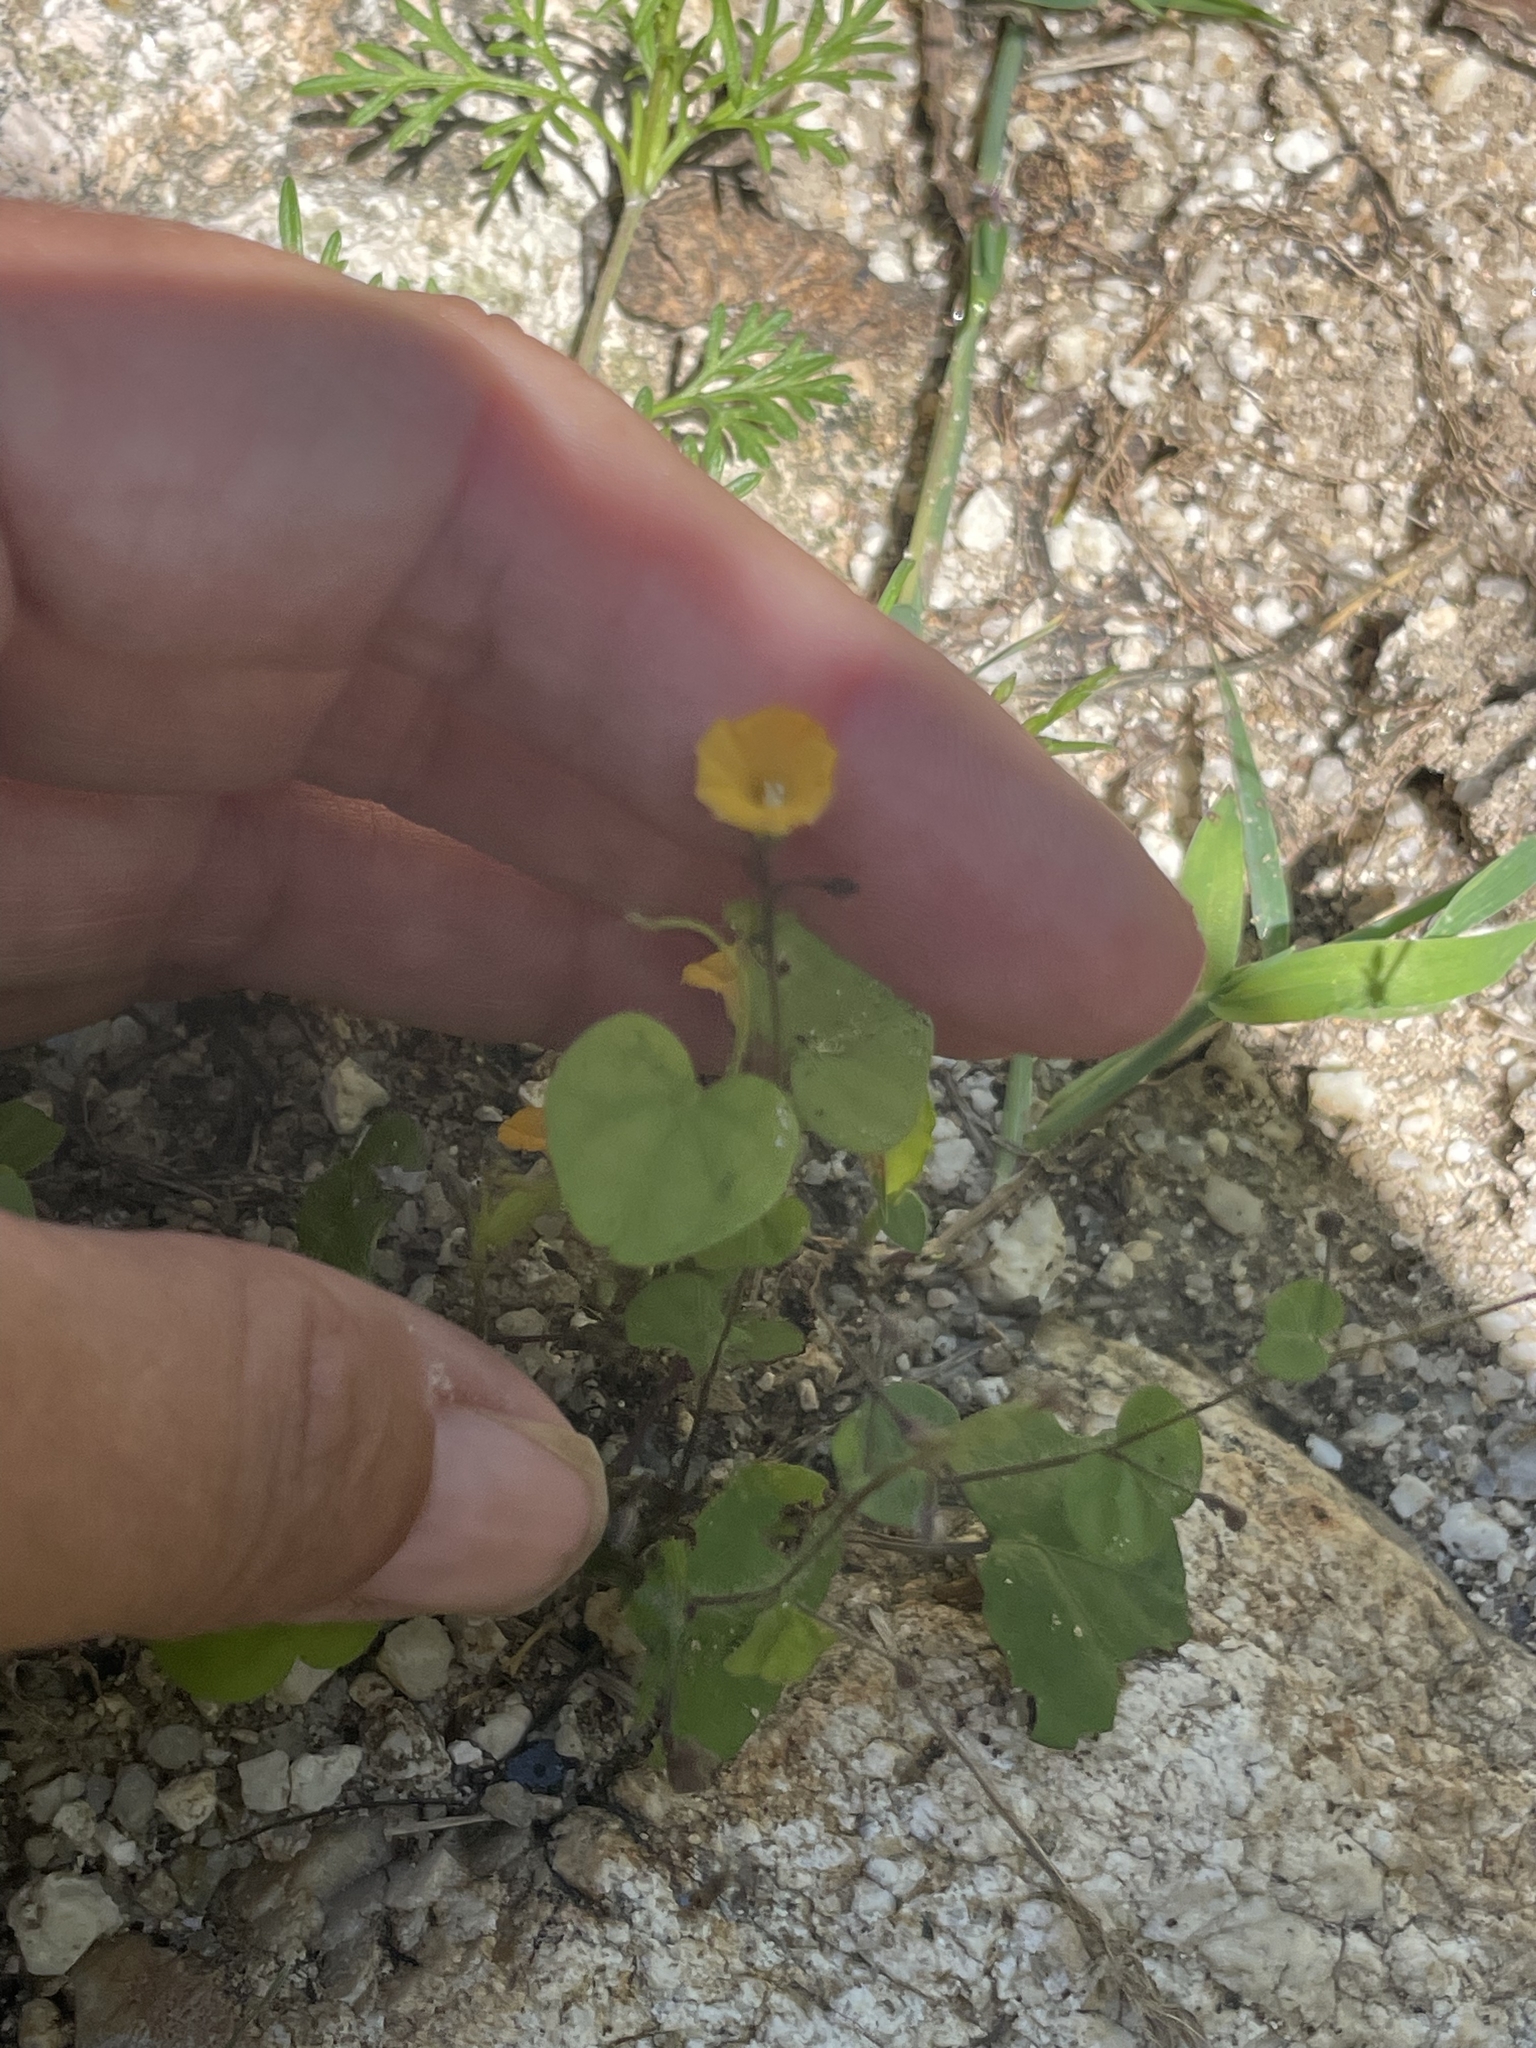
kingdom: Plantae
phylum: Tracheophyta
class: Magnoliopsida
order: Solanales
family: Convolvulaceae
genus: Ipomoea
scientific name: Ipomoea minutiflora
